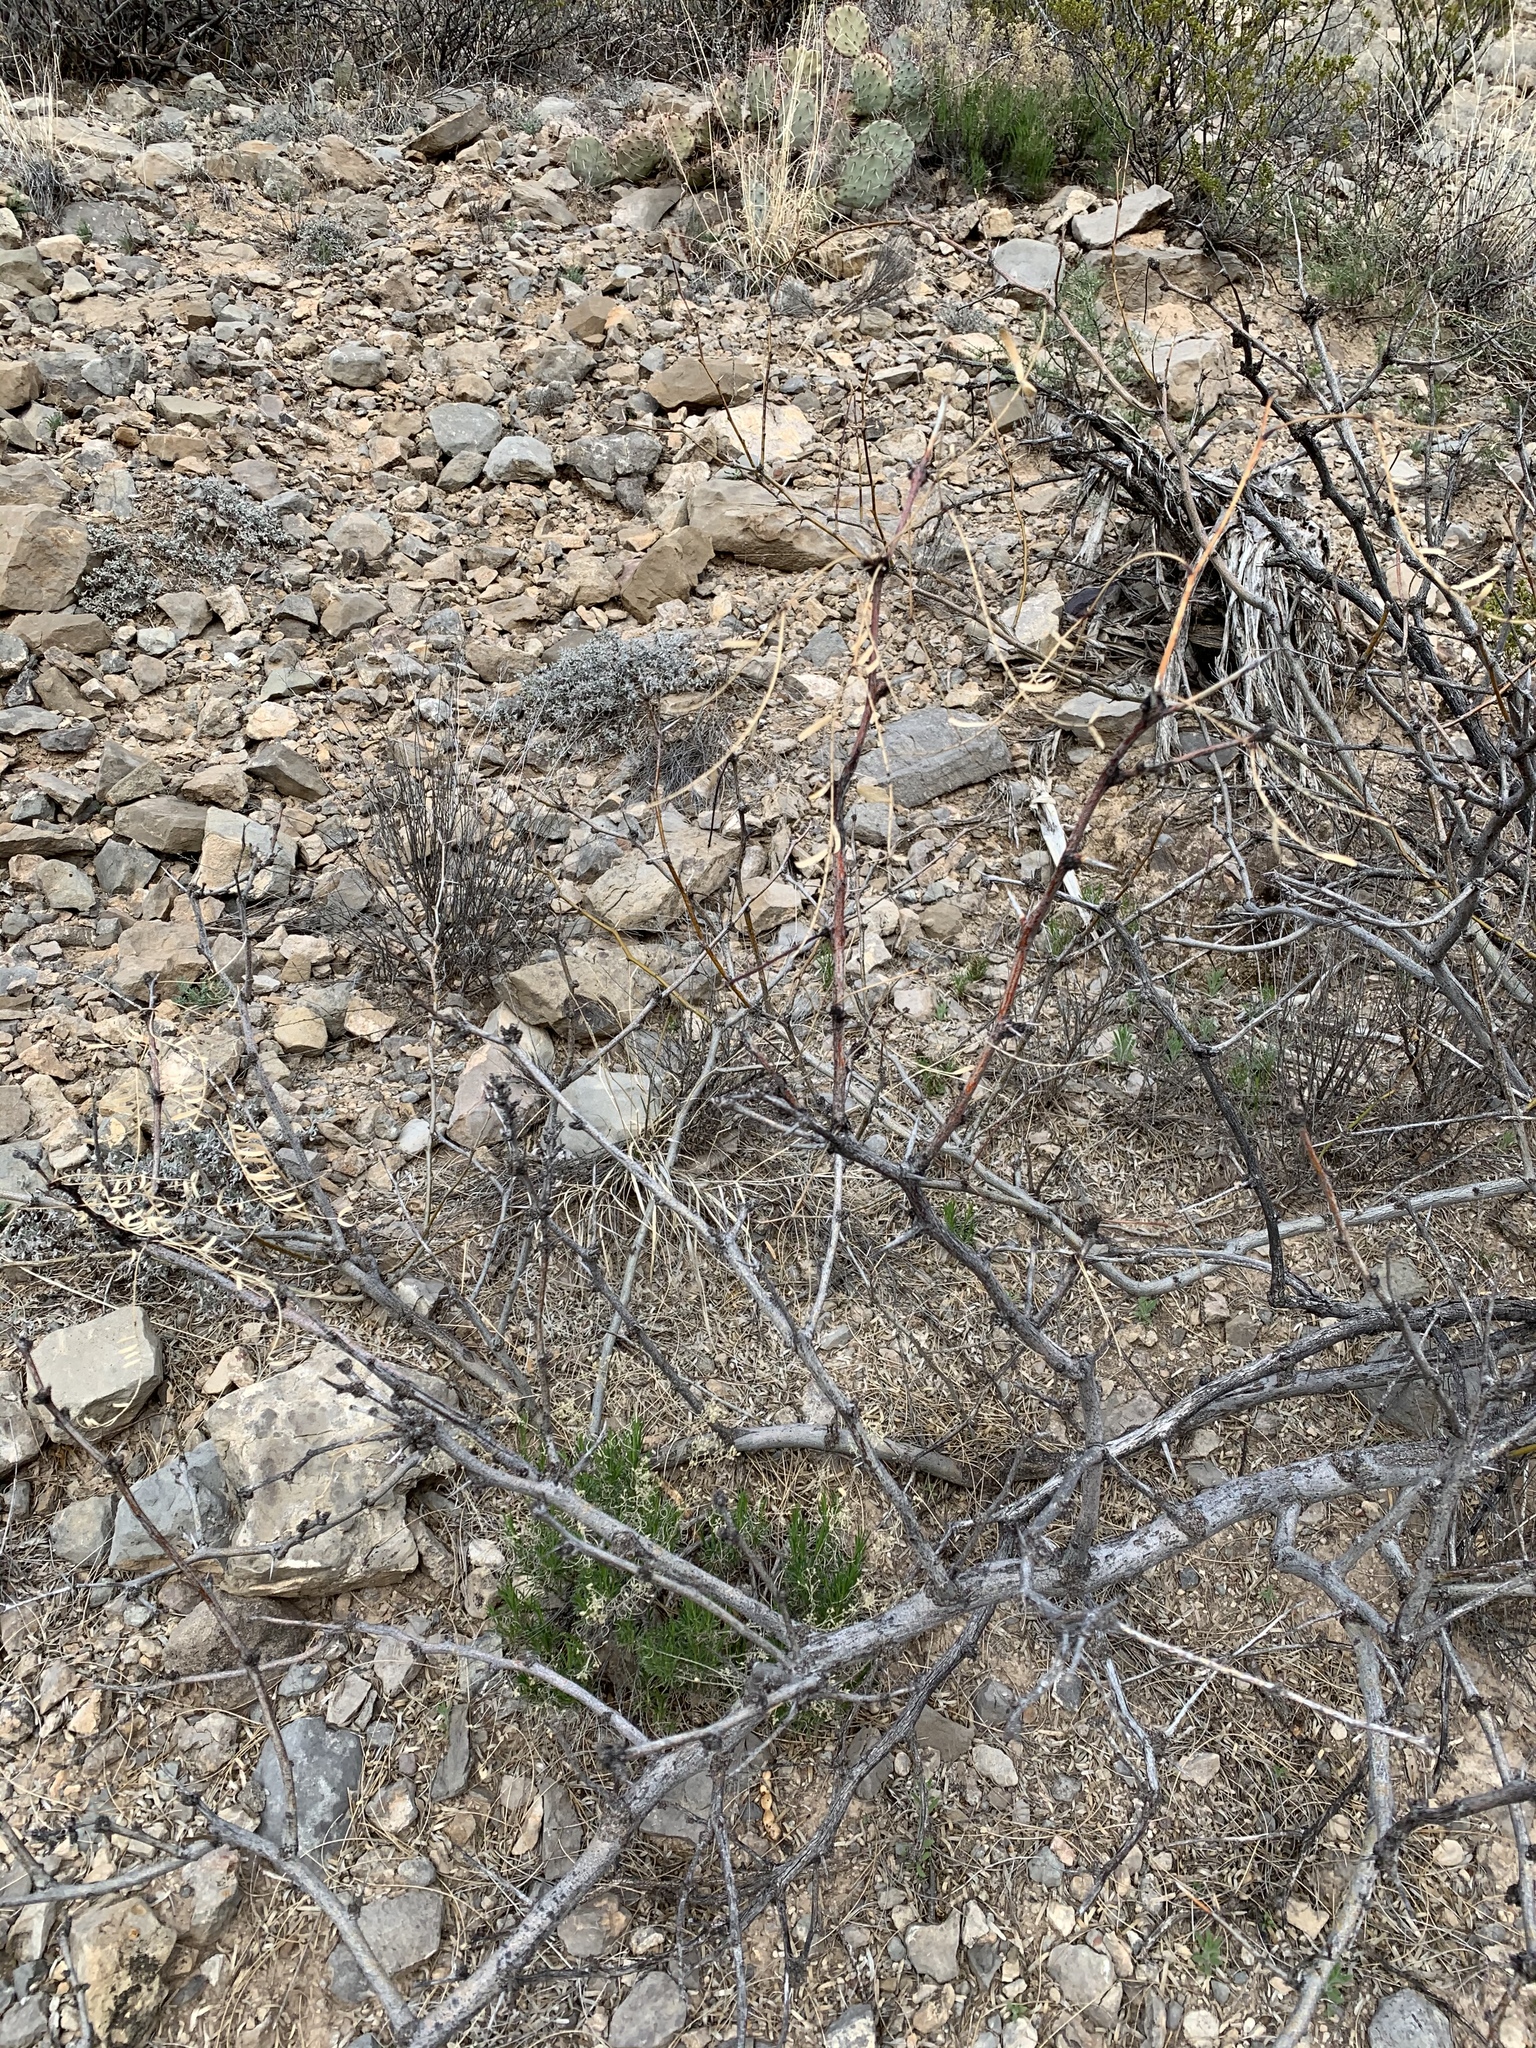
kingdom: Plantae
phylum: Tracheophyta
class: Magnoliopsida
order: Fabales
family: Fabaceae
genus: Vachellia
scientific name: Vachellia constricta
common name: Mescat acacia
